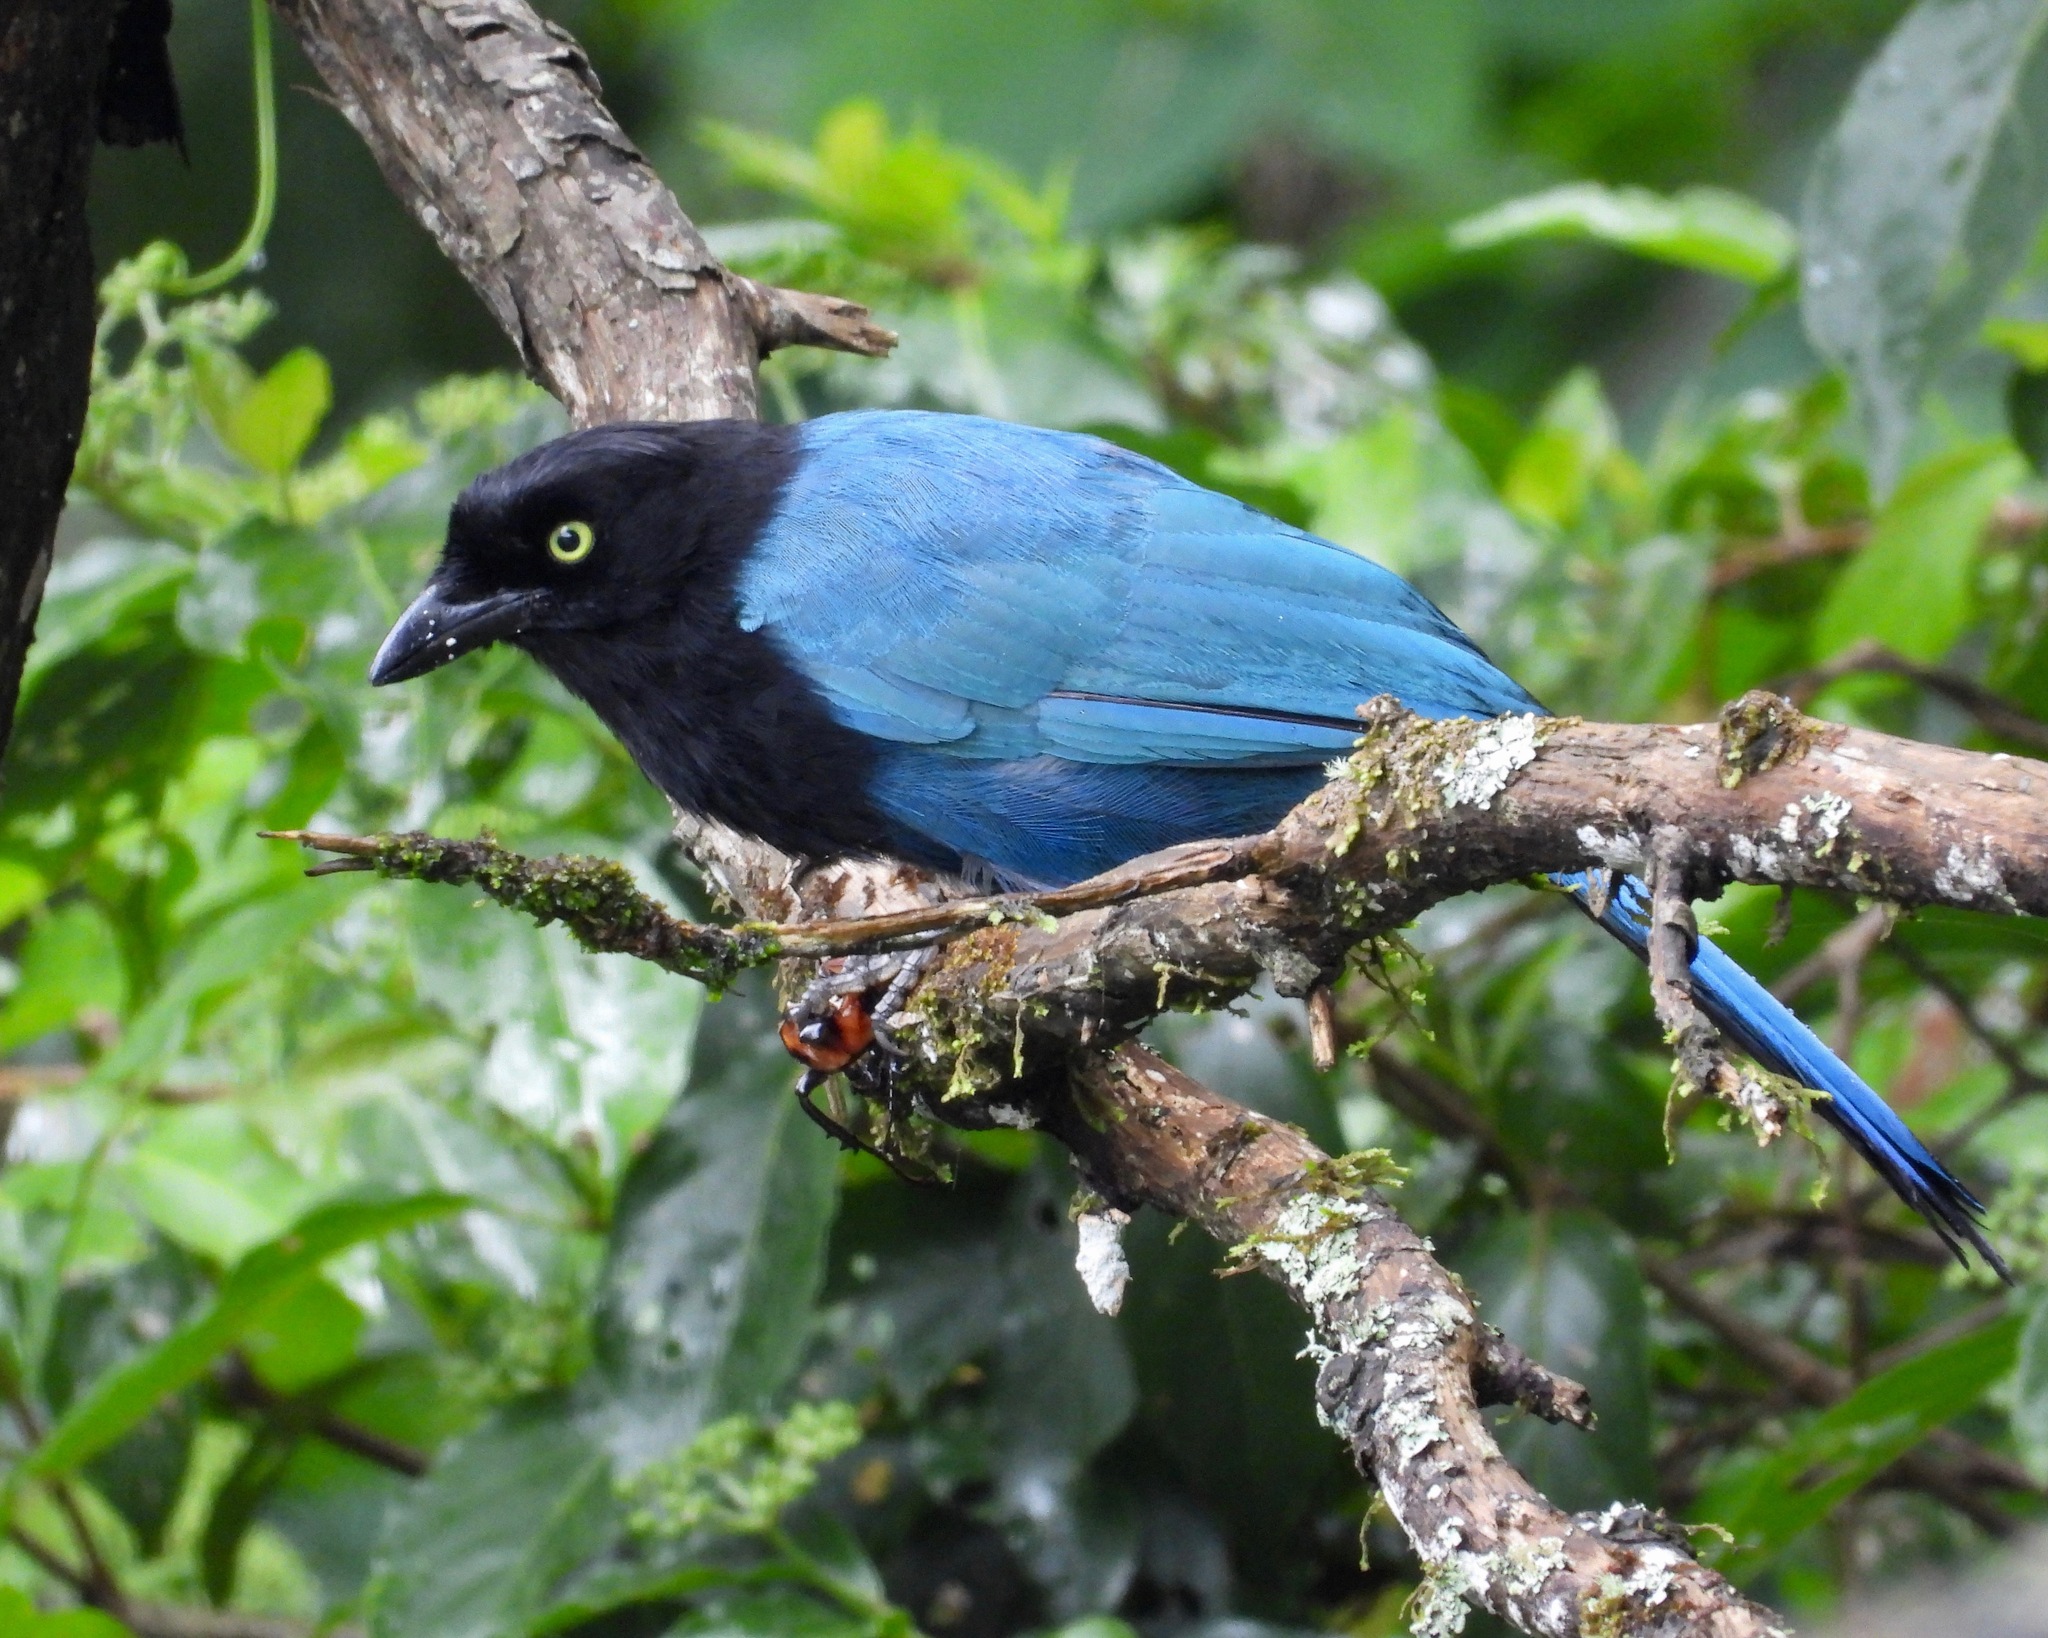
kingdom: Animalia
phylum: Chordata
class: Aves
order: Passeriformes
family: Corvidae
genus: Cyanocorax
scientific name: Cyanocorax melanocyaneus
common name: Bushy-crested jay
